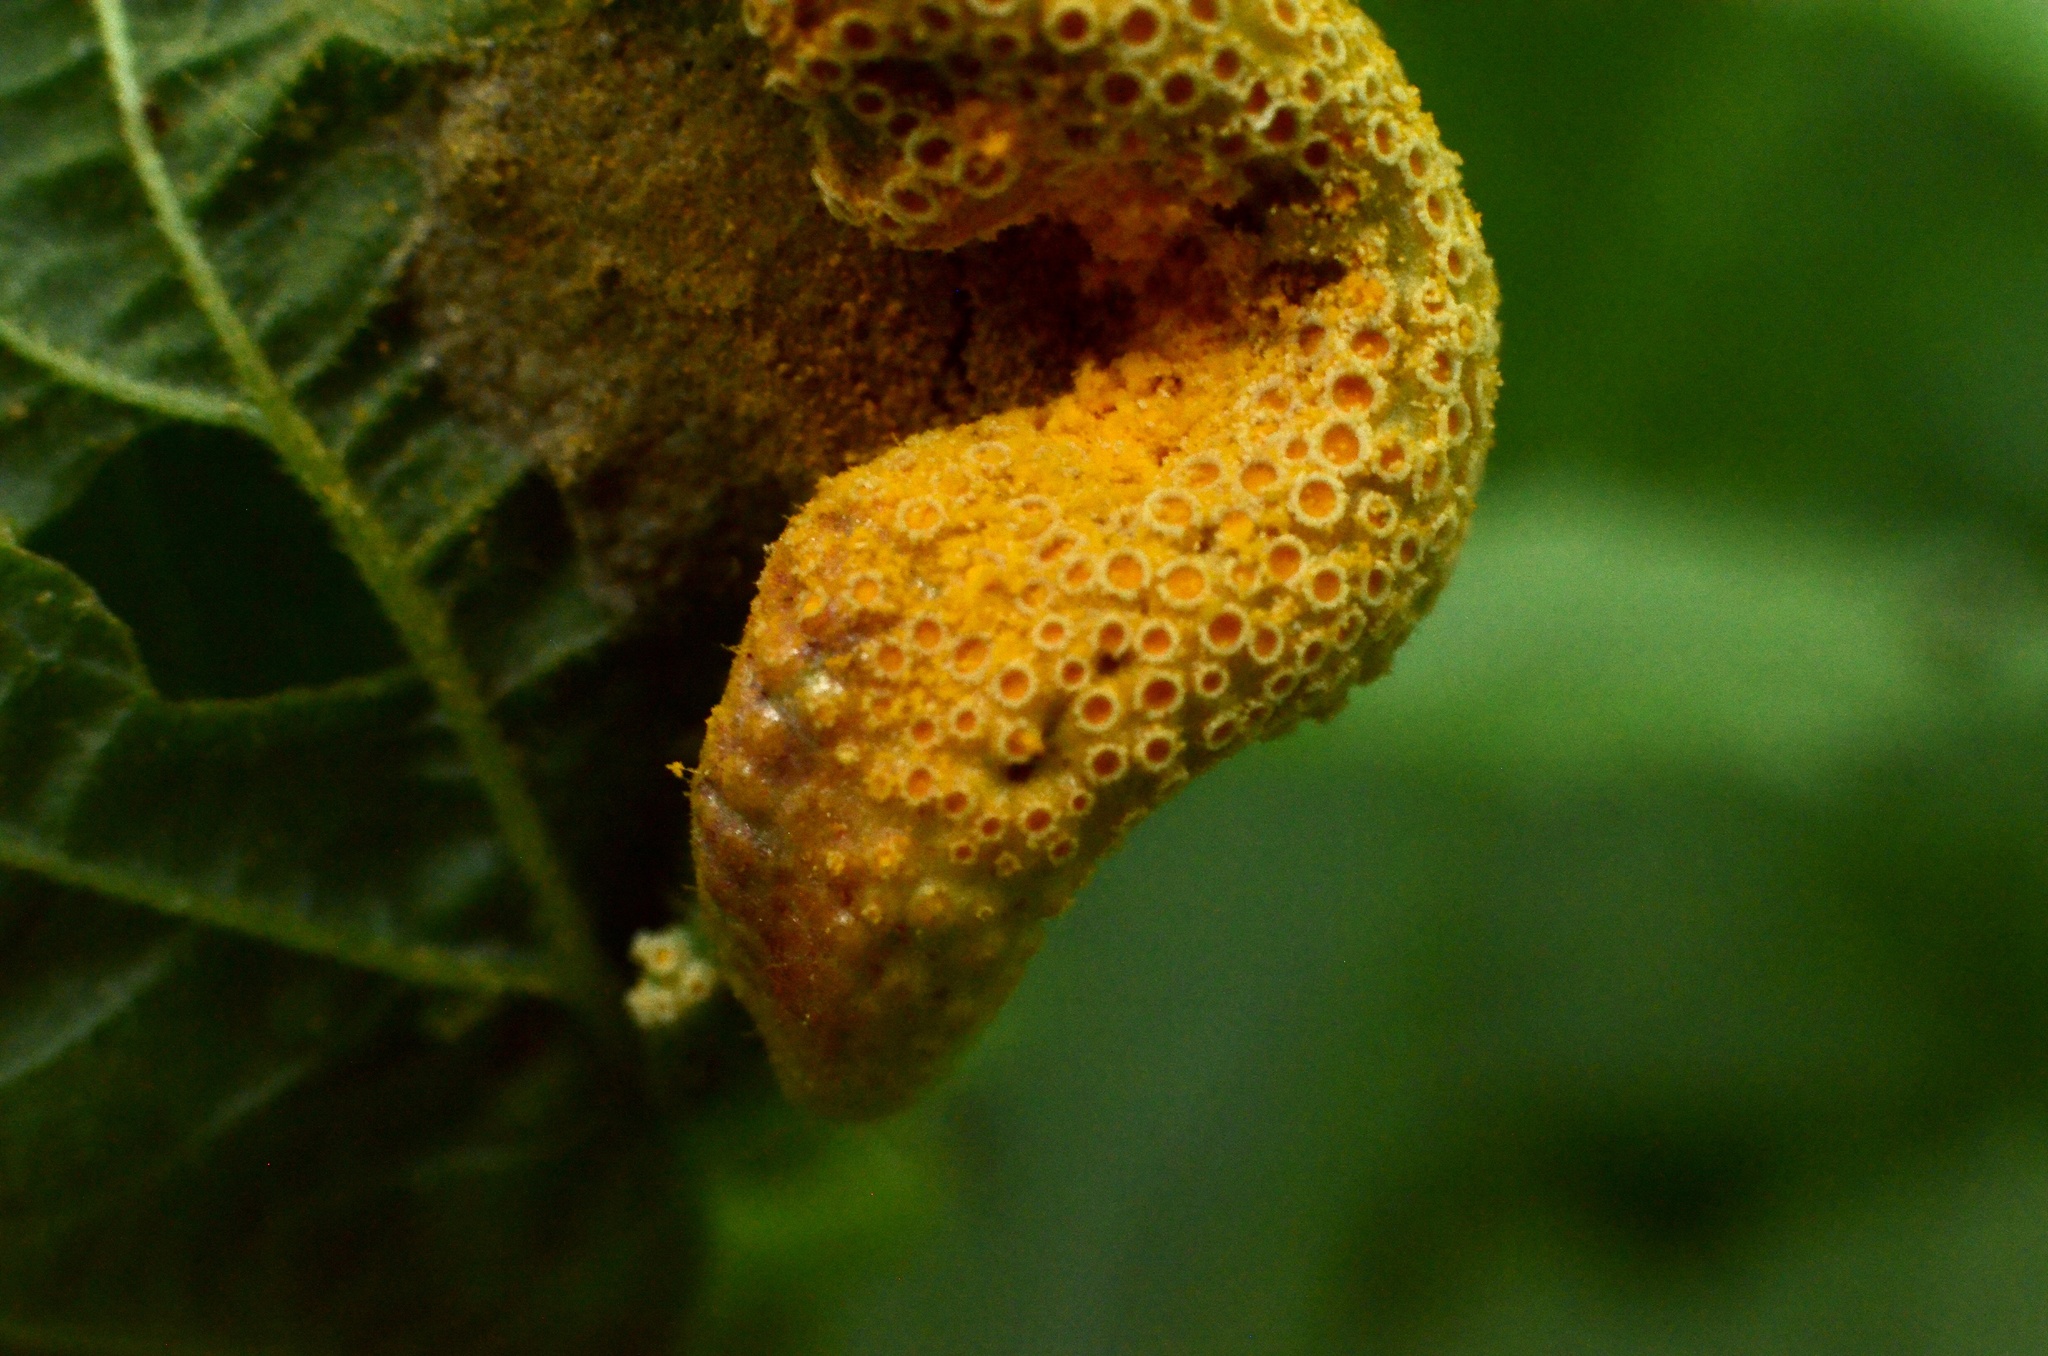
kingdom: Fungi
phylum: Basidiomycota
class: Pucciniomycetes
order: Pucciniales
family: Pucciniaceae
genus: Puccinia
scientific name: Puccinia urticata
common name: Nettle clustercup rust fungus
